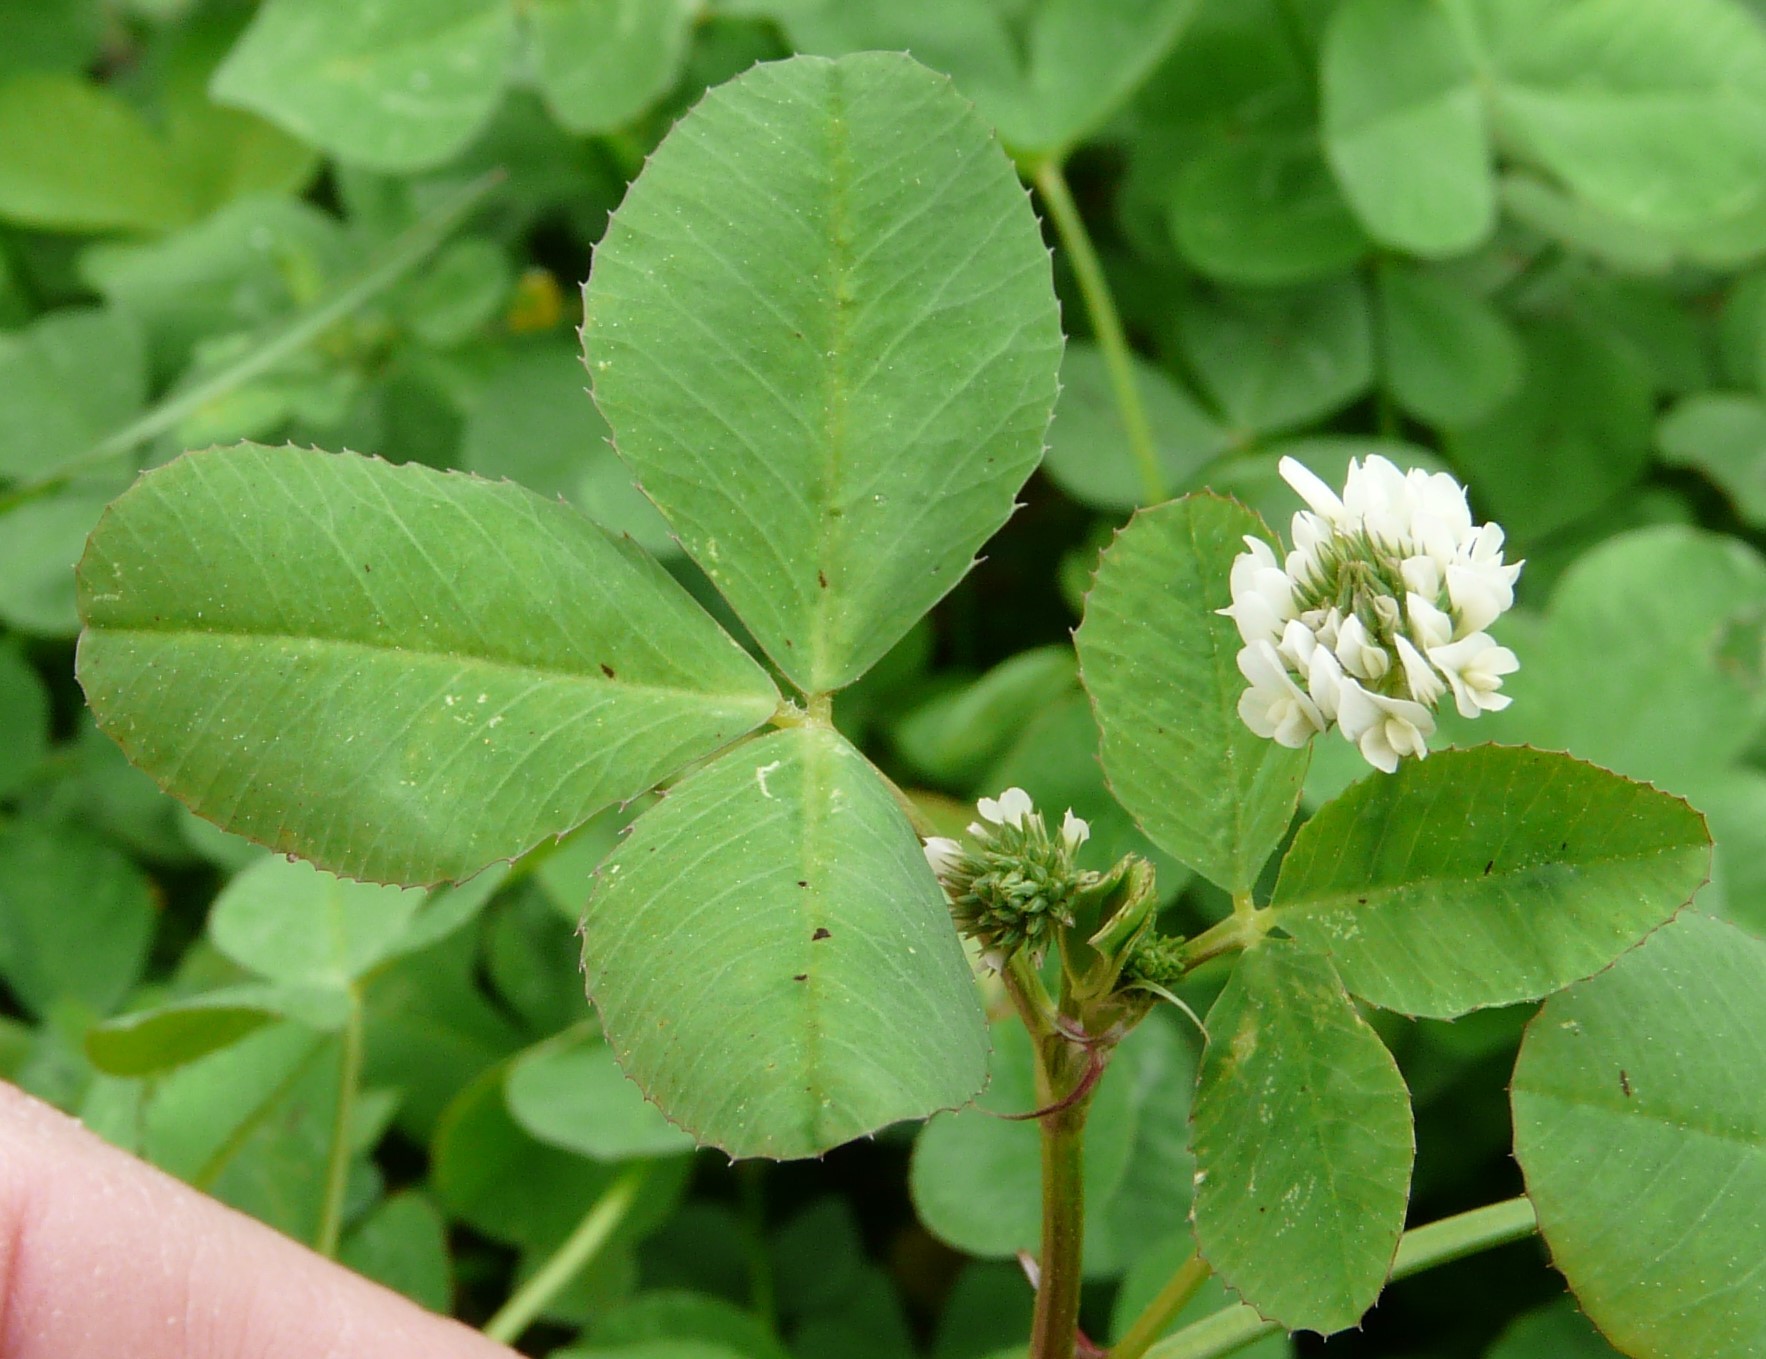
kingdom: Plantae
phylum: Tracheophyta
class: Magnoliopsida
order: Fabales
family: Fabaceae
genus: Trifolium
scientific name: Trifolium repens
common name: White clover
